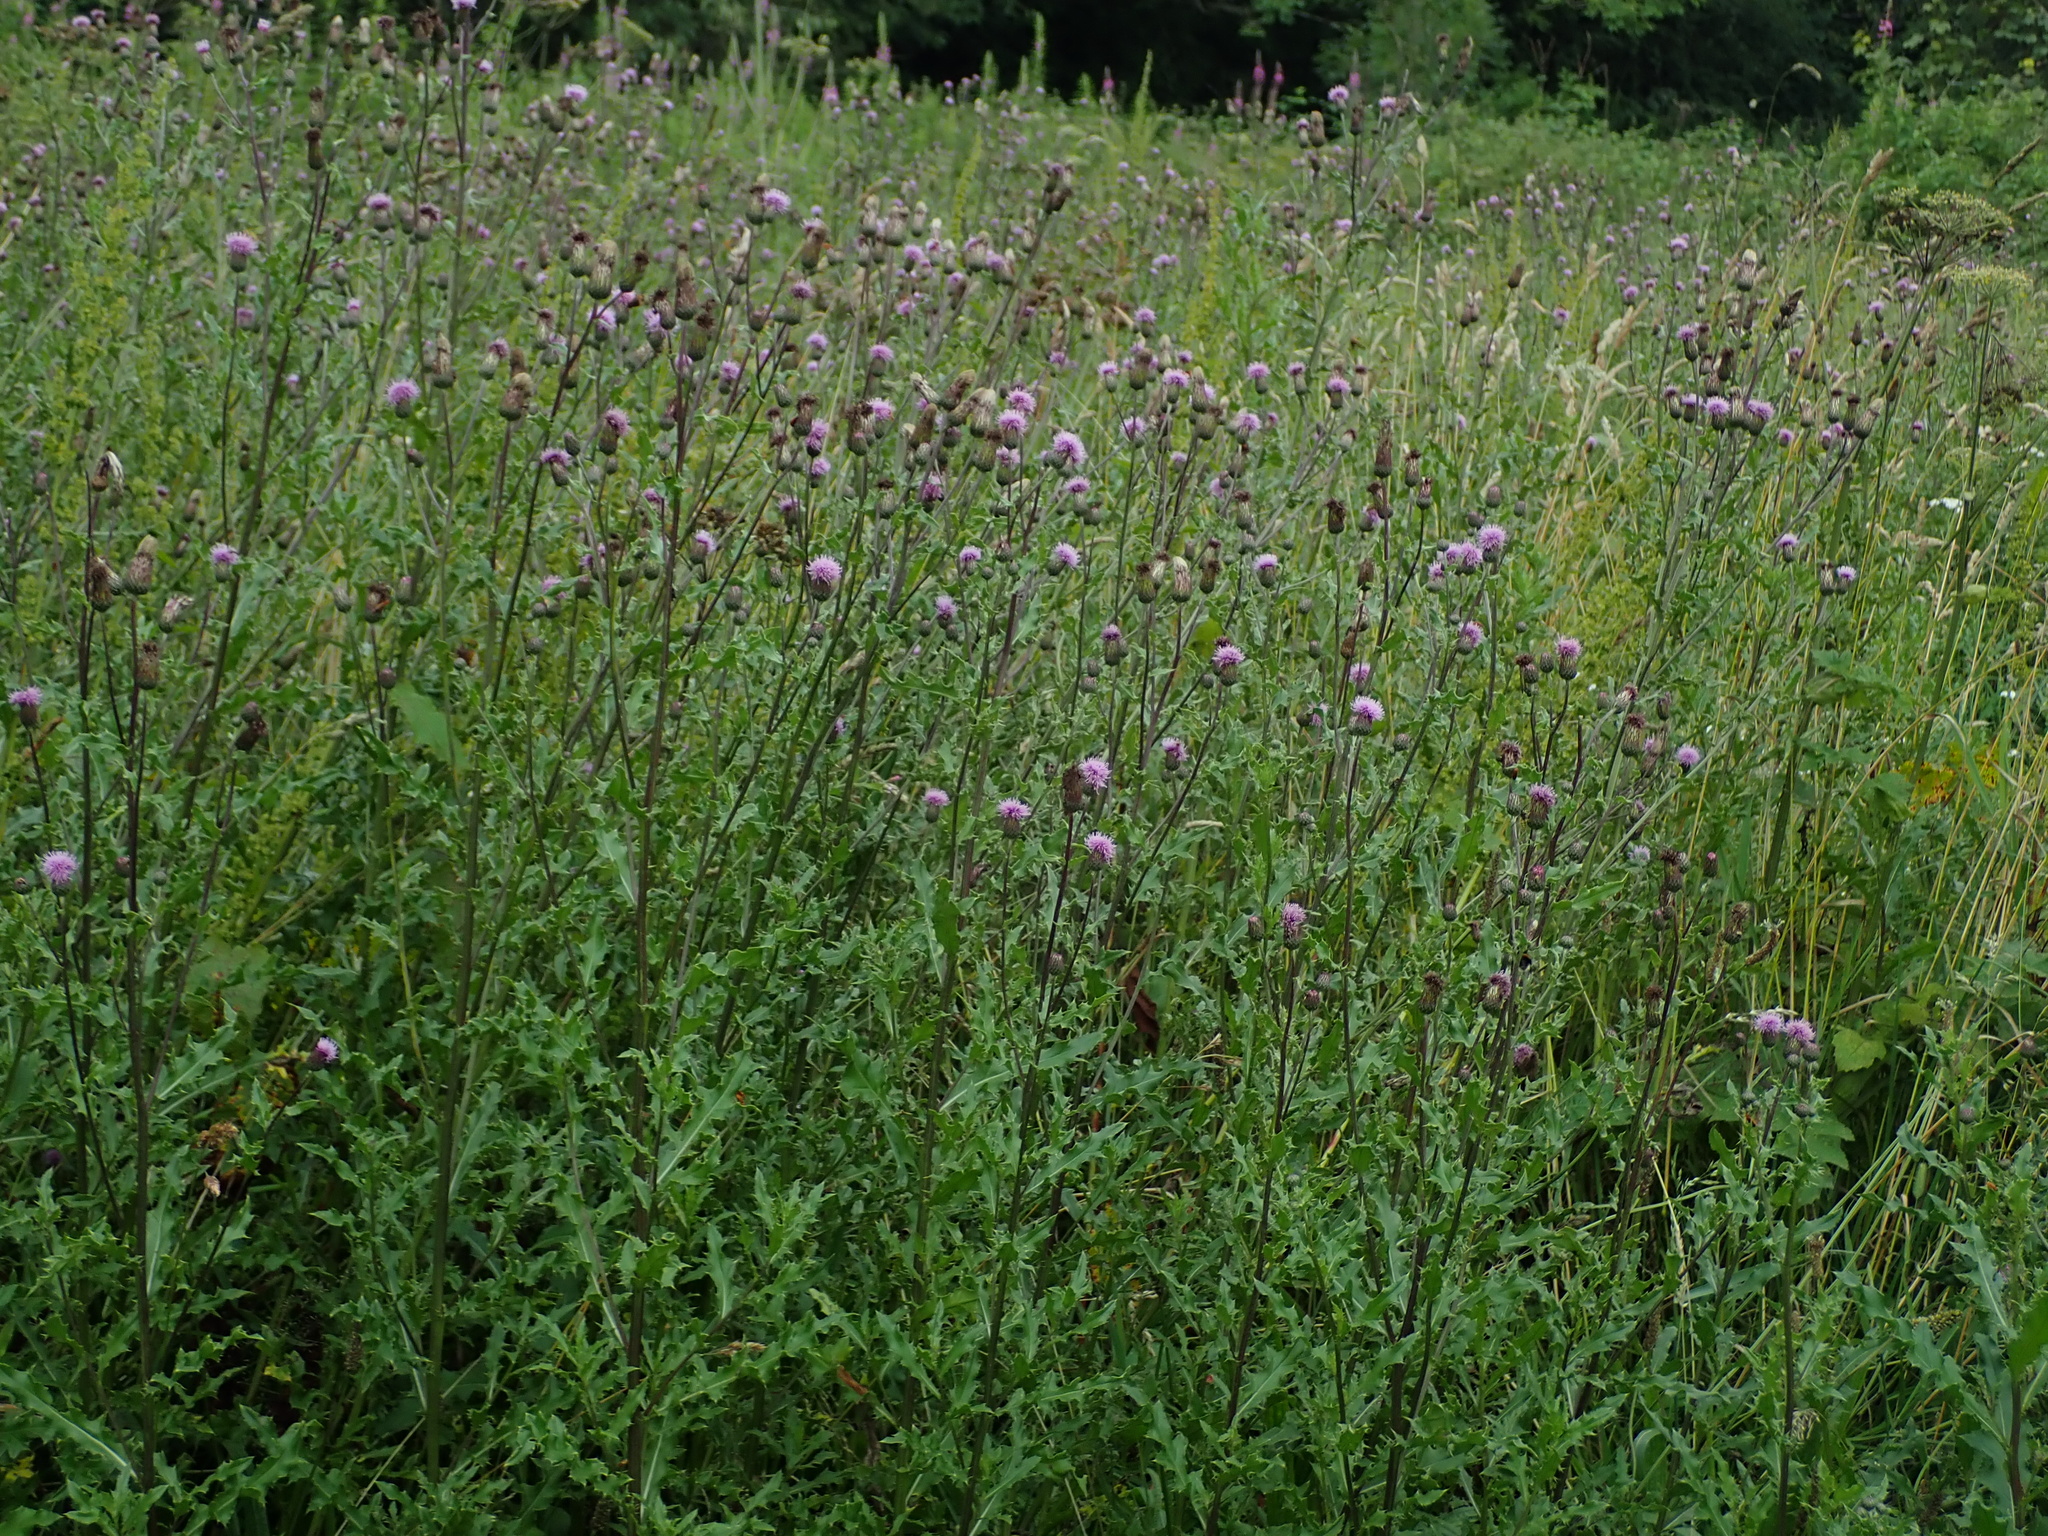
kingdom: Plantae
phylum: Tracheophyta
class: Magnoliopsida
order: Asterales
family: Asteraceae
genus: Cirsium
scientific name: Cirsium arvense
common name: Creeping thistle
